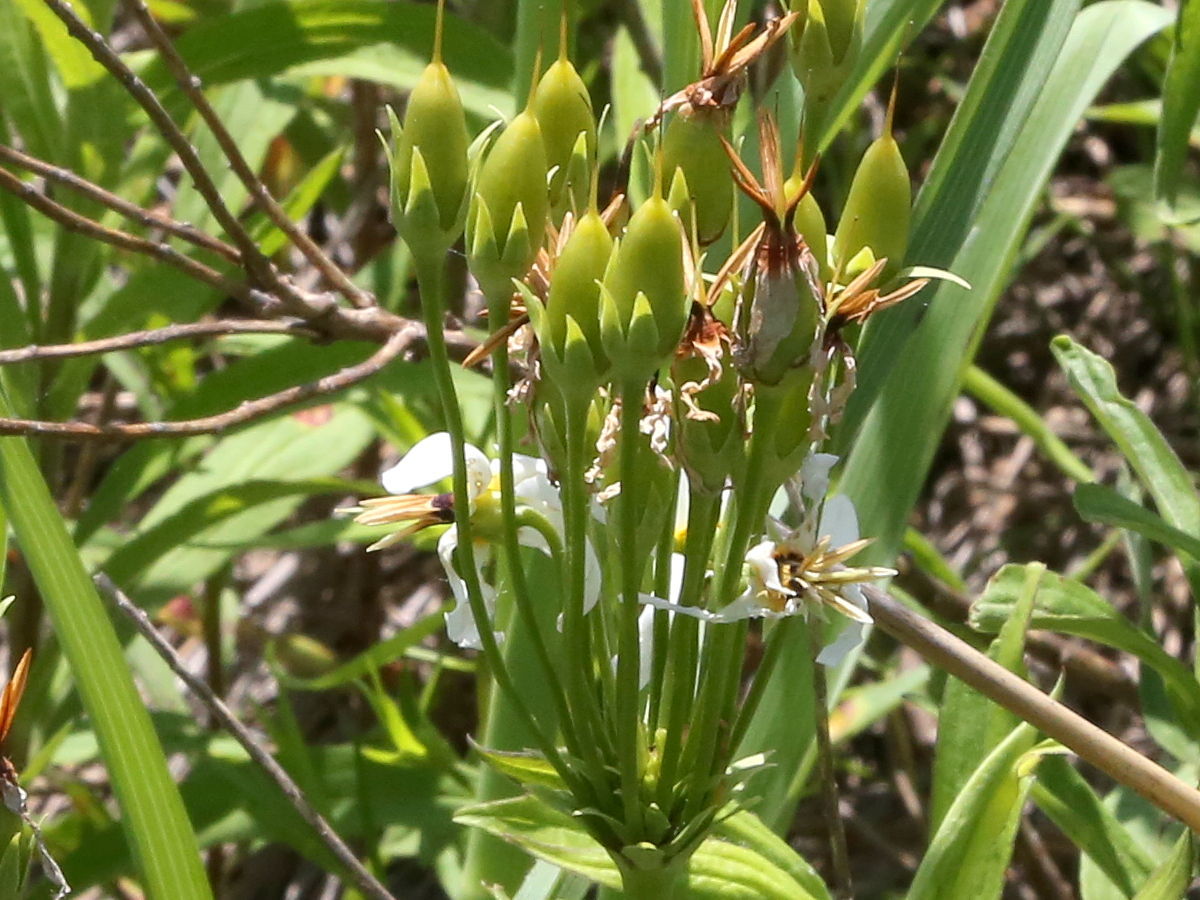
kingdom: Plantae
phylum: Tracheophyta
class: Magnoliopsida
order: Ericales
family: Primulaceae
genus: Dodecatheon
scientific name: Dodecatheon meadia
